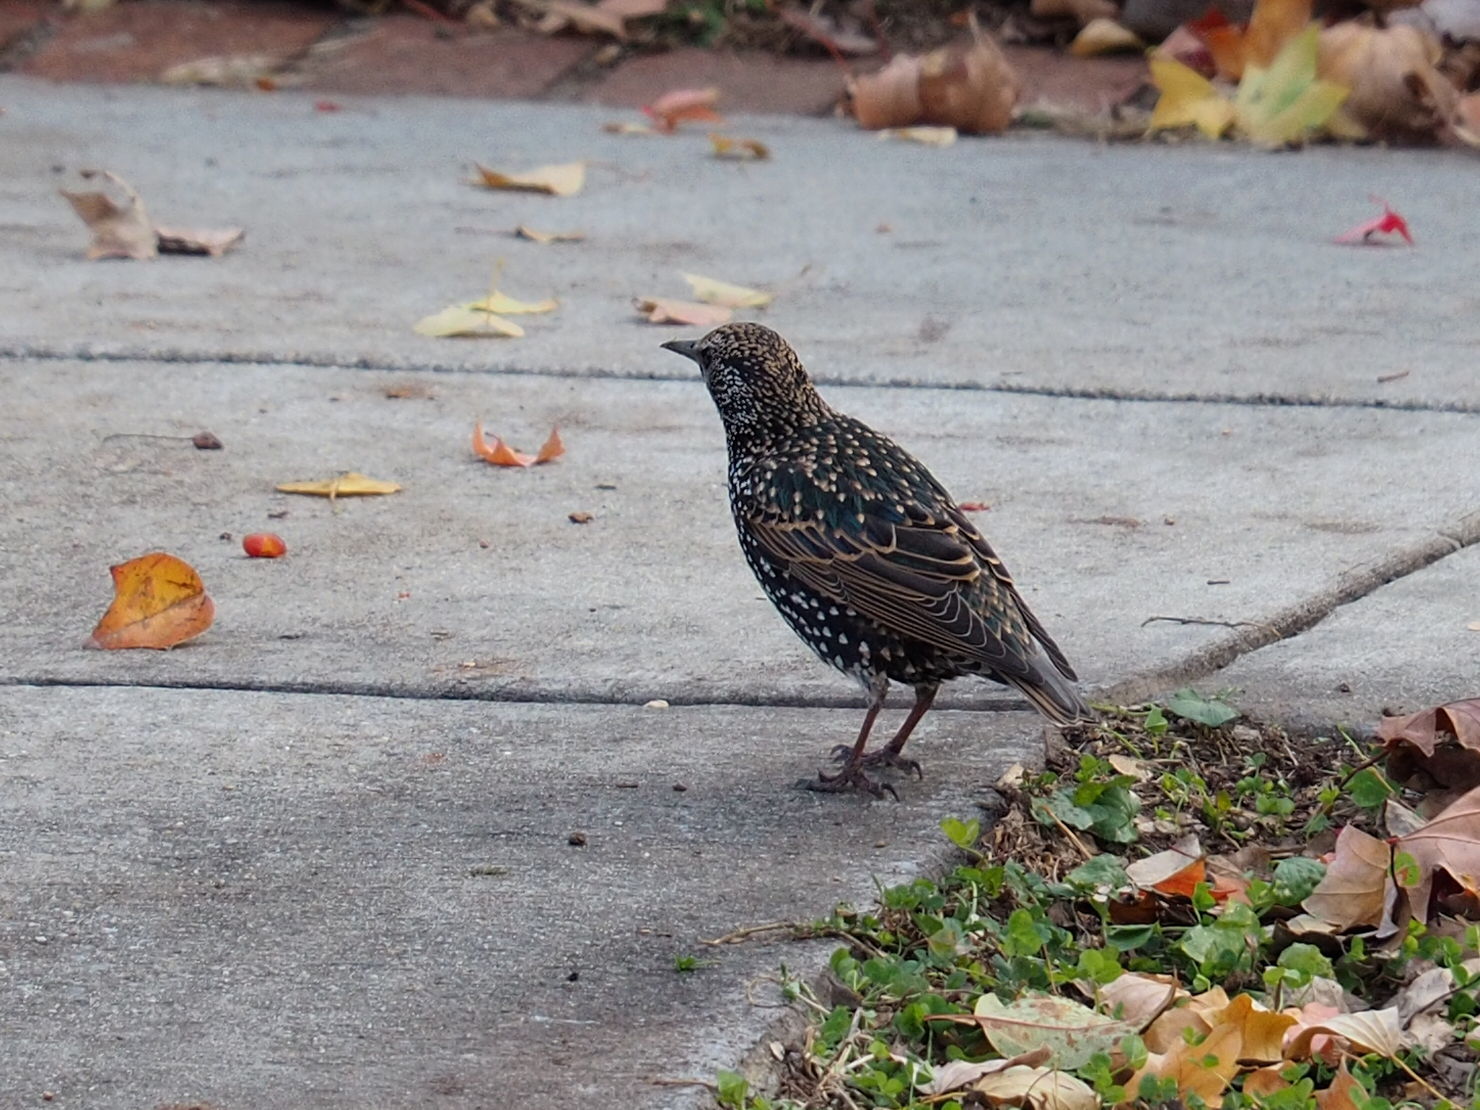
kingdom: Animalia
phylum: Chordata
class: Aves
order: Passeriformes
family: Sturnidae
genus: Sturnus
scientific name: Sturnus vulgaris
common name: Common starling
